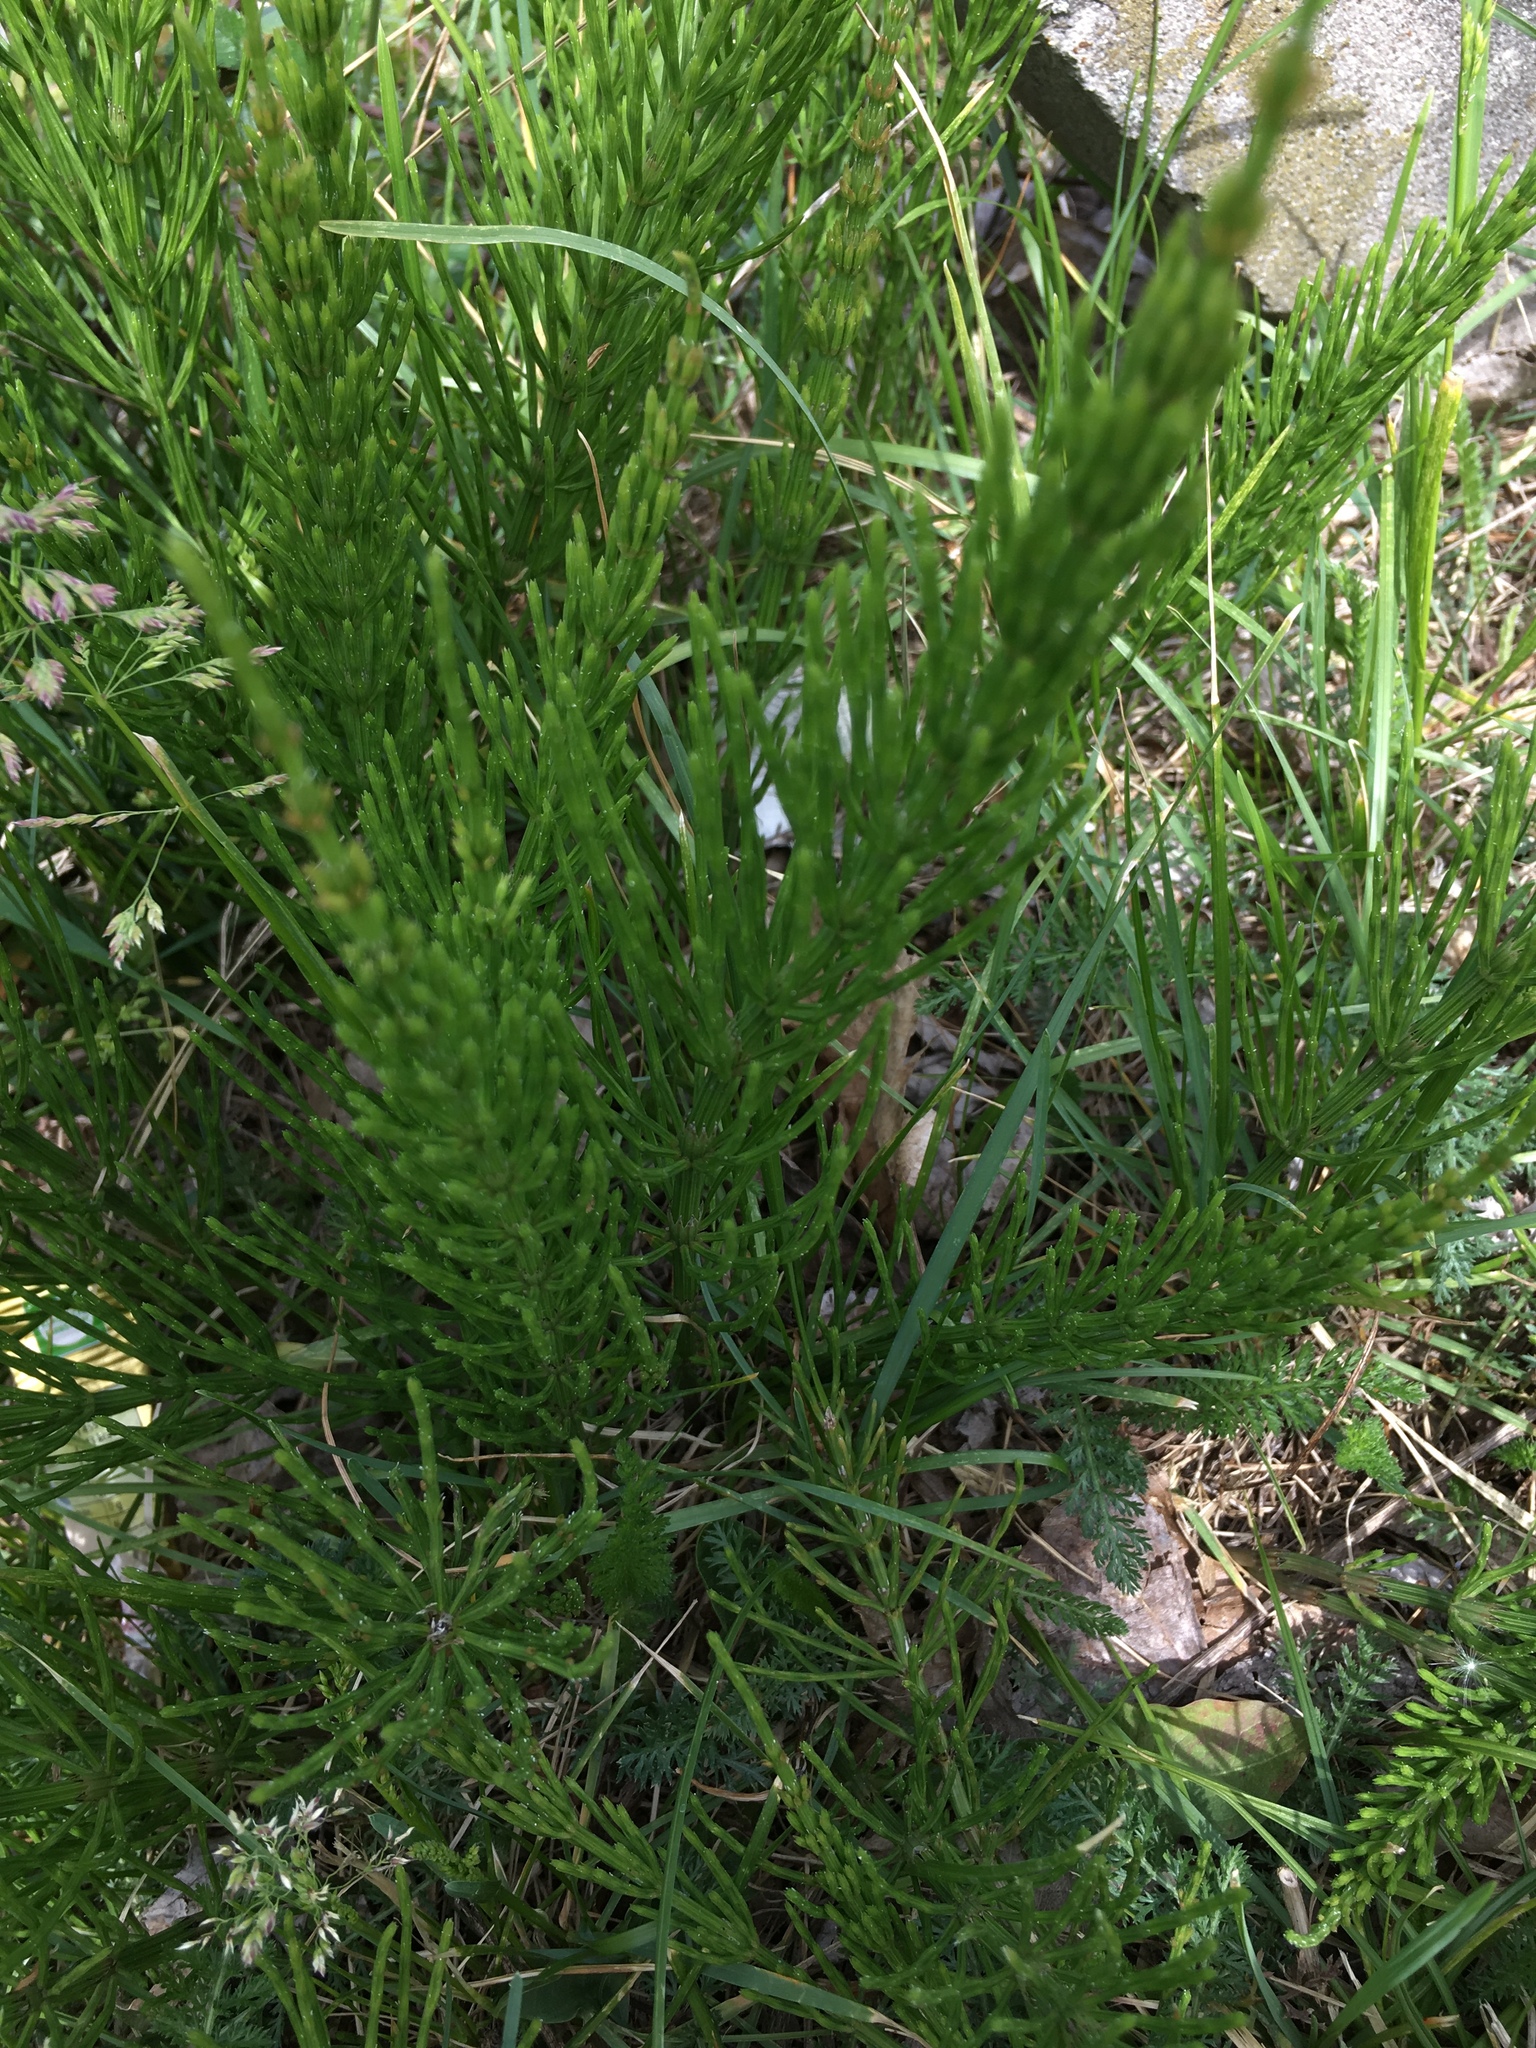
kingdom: Plantae
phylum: Tracheophyta
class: Polypodiopsida
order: Equisetales
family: Equisetaceae
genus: Equisetum
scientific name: Equisetum arvense
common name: Field horsetail
